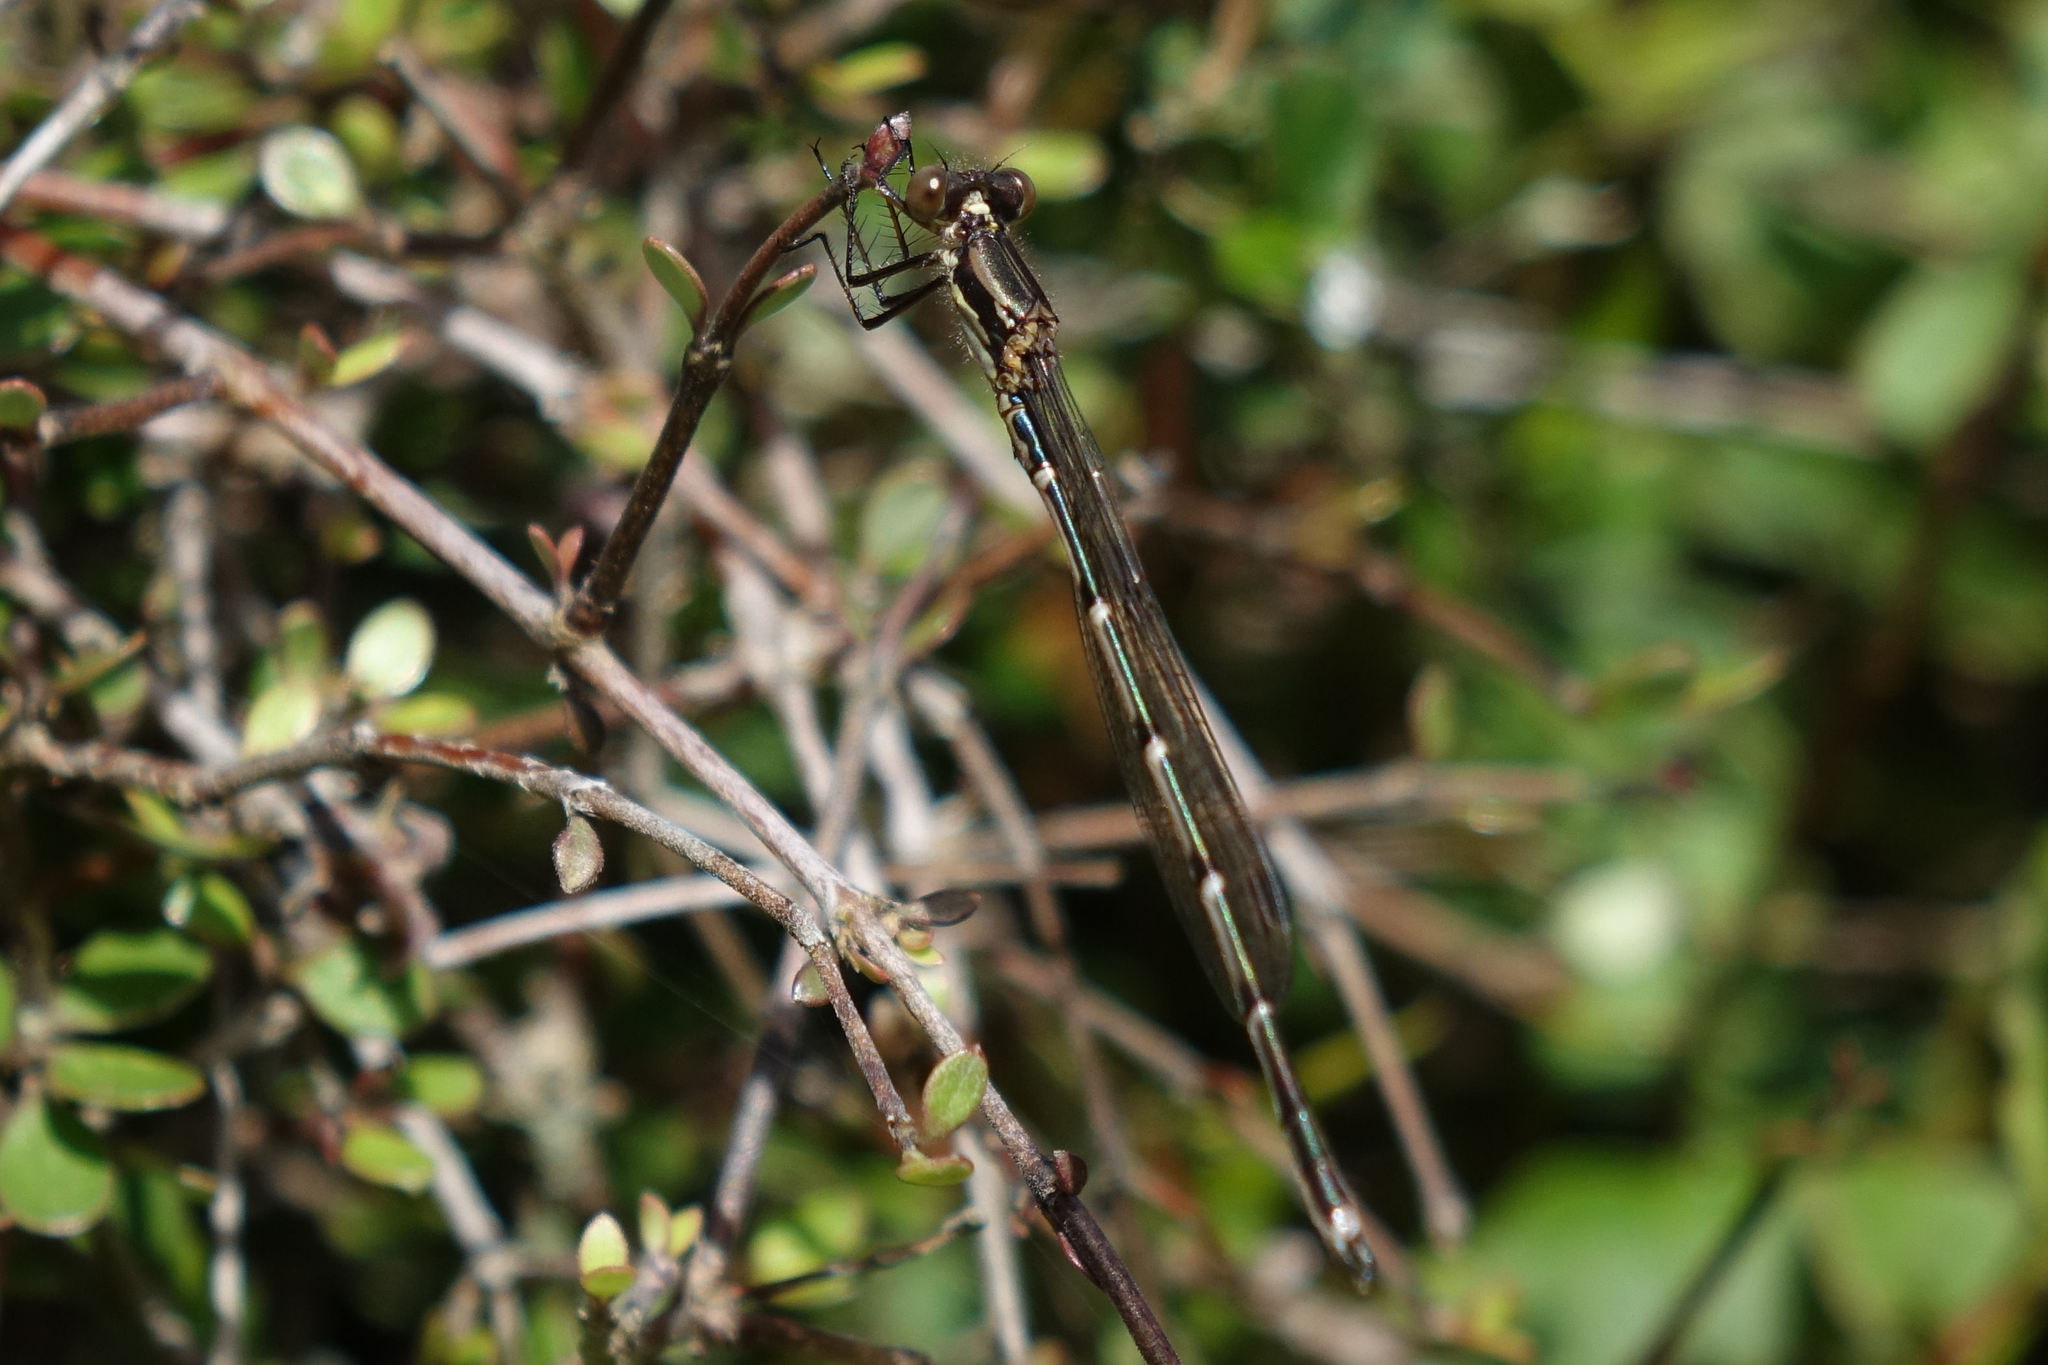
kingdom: Animalia
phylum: Arthropoda
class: Insecta
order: Odonata
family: Lestidae
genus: Austrolestes
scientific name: Austrolestes colensonis
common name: Blue damselfly
